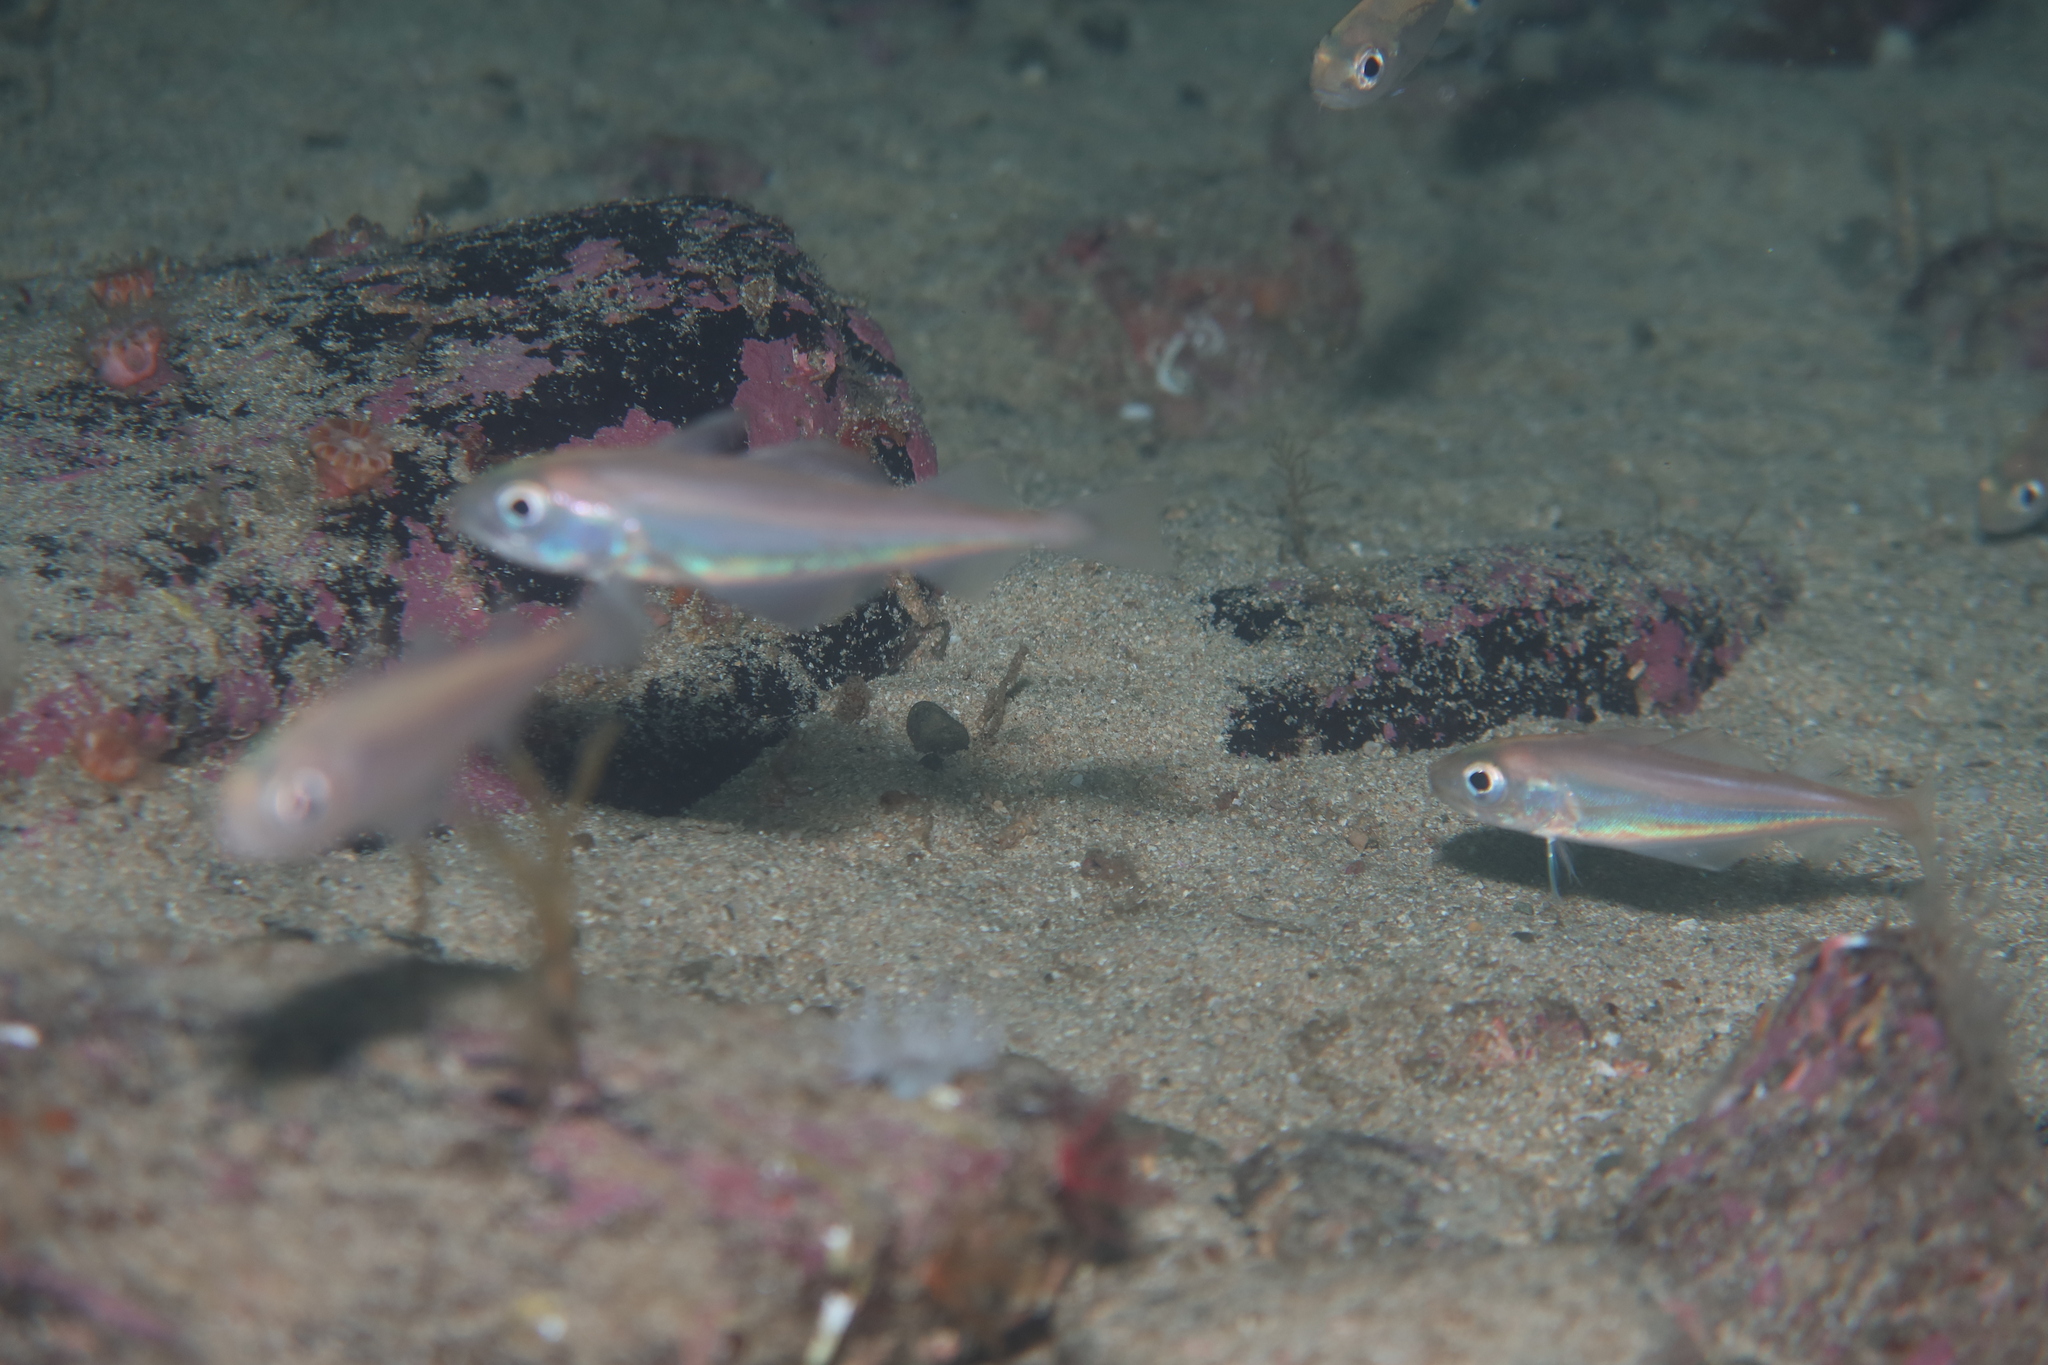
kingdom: Animalia
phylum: Chordata
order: Gadiformes
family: Gadidae
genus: Trisopterus
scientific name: Trisopterus minutus
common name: Poor cod
